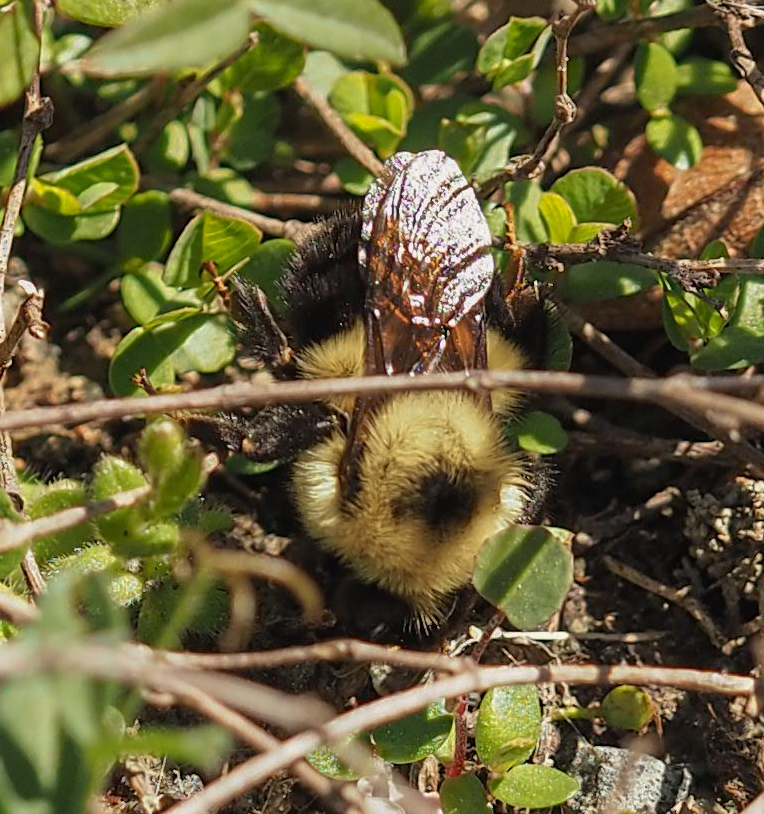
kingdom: Animalia
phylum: Arthropoda
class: Insecta
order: Hymenoptera
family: Apidae
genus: Bombus
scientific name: Bombus bimaculatus
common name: Two-spotted bumble bee
